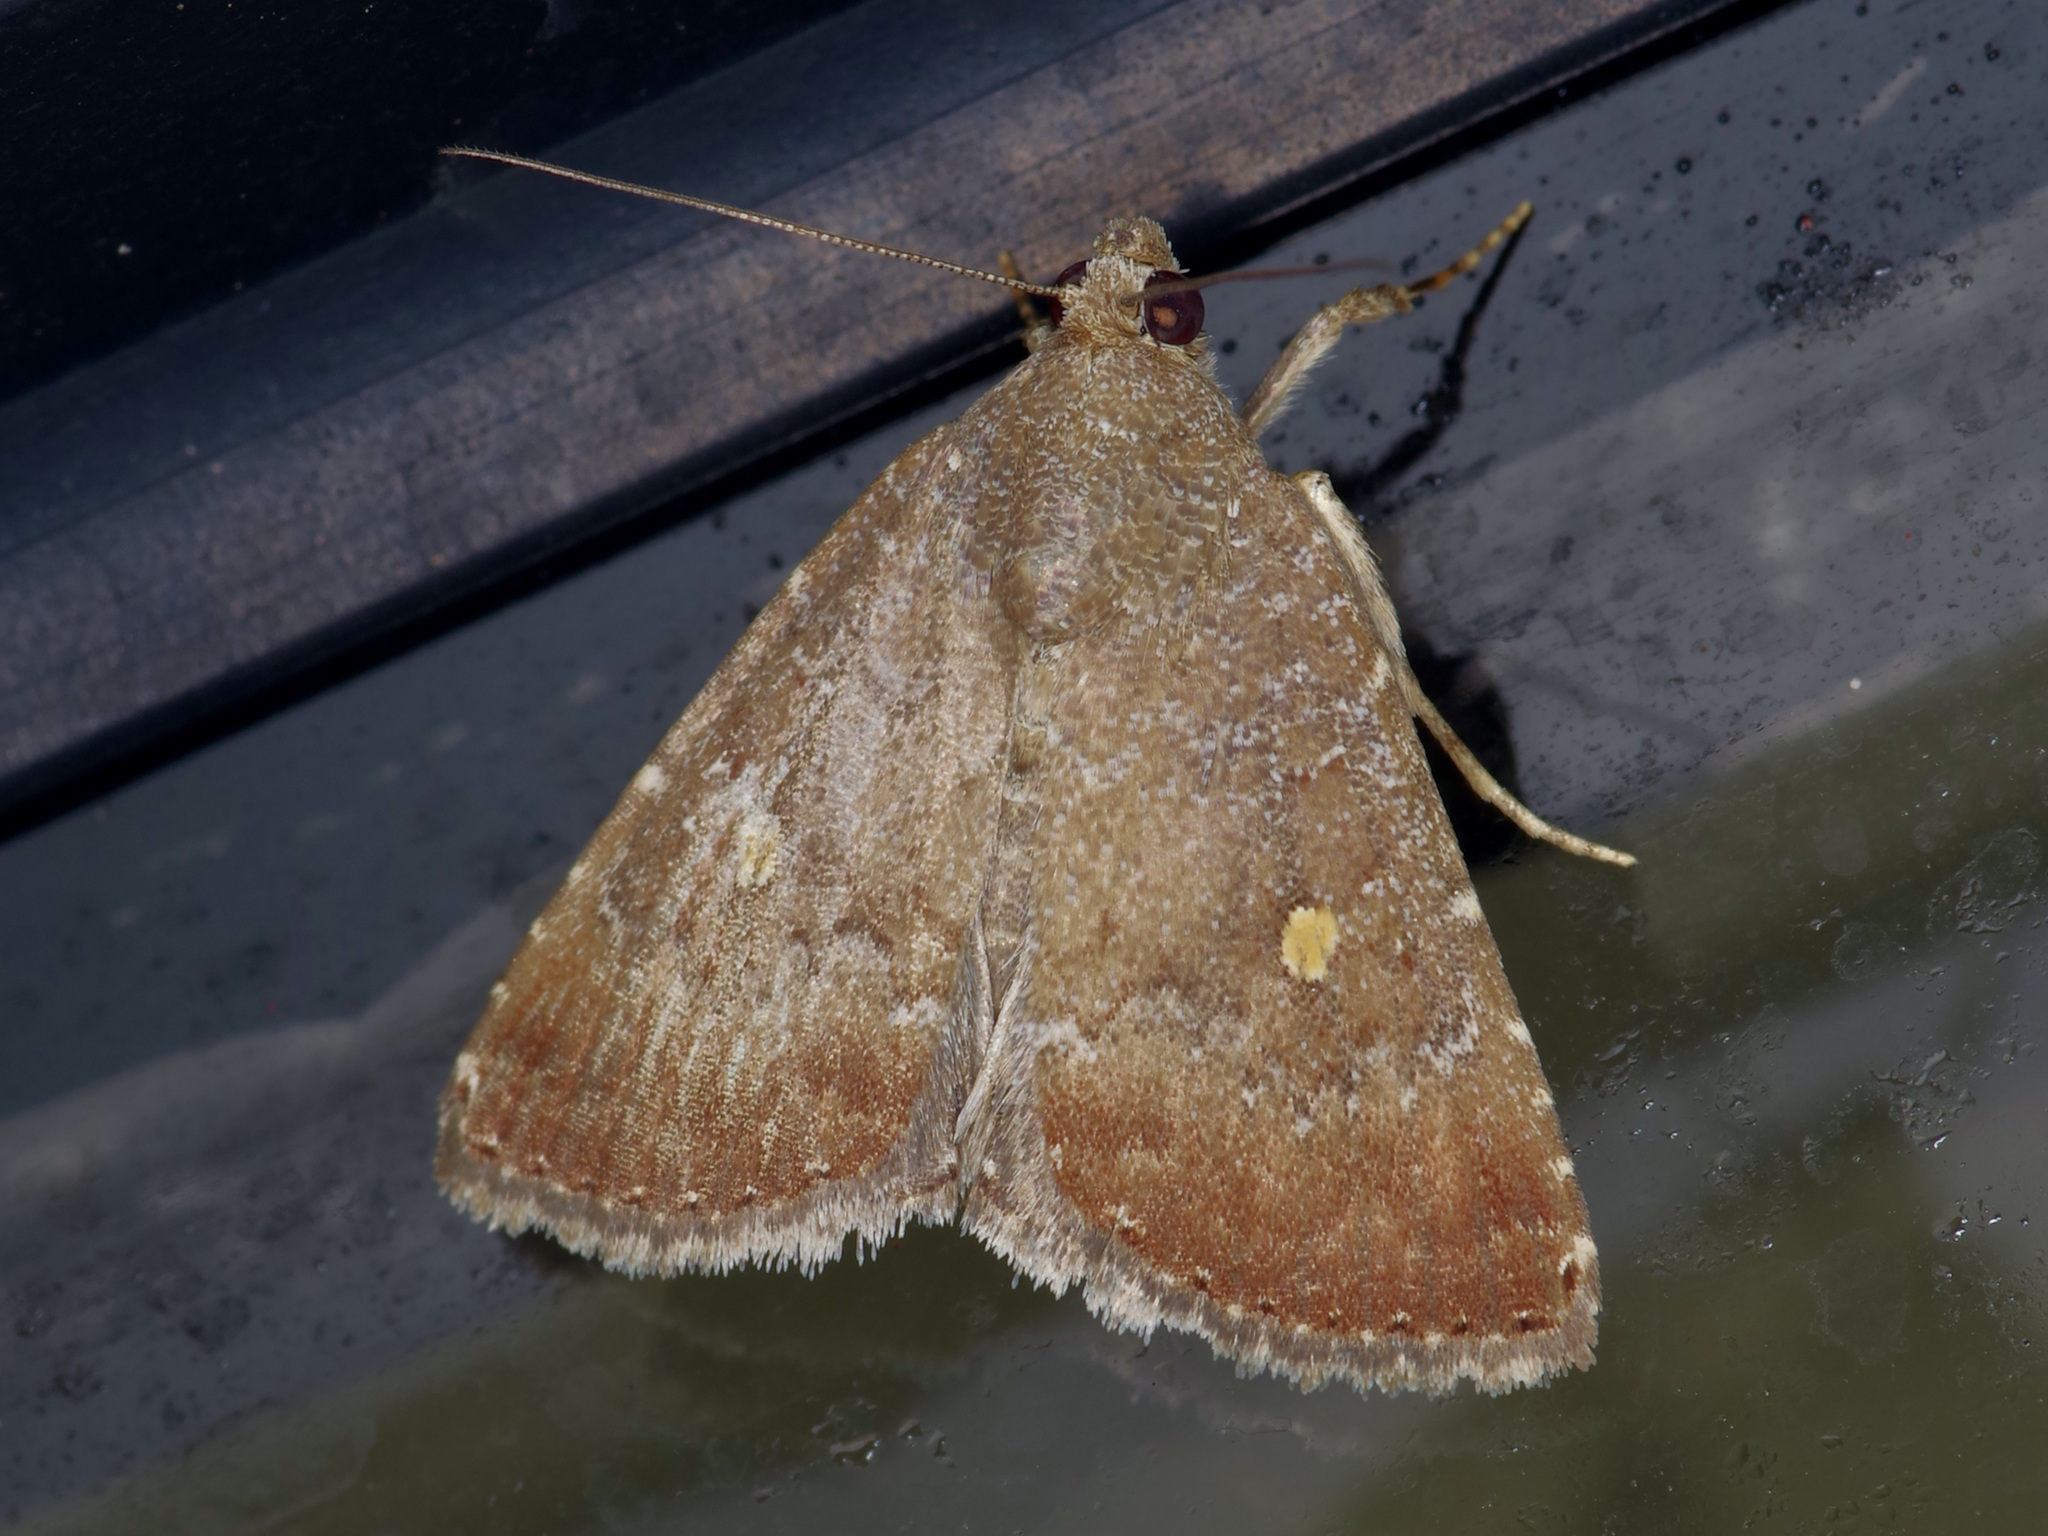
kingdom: Animalia
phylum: Arthropoda
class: Insecta
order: Lepidoptera
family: Noctuidae
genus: Amyna
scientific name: Amyna stricta
